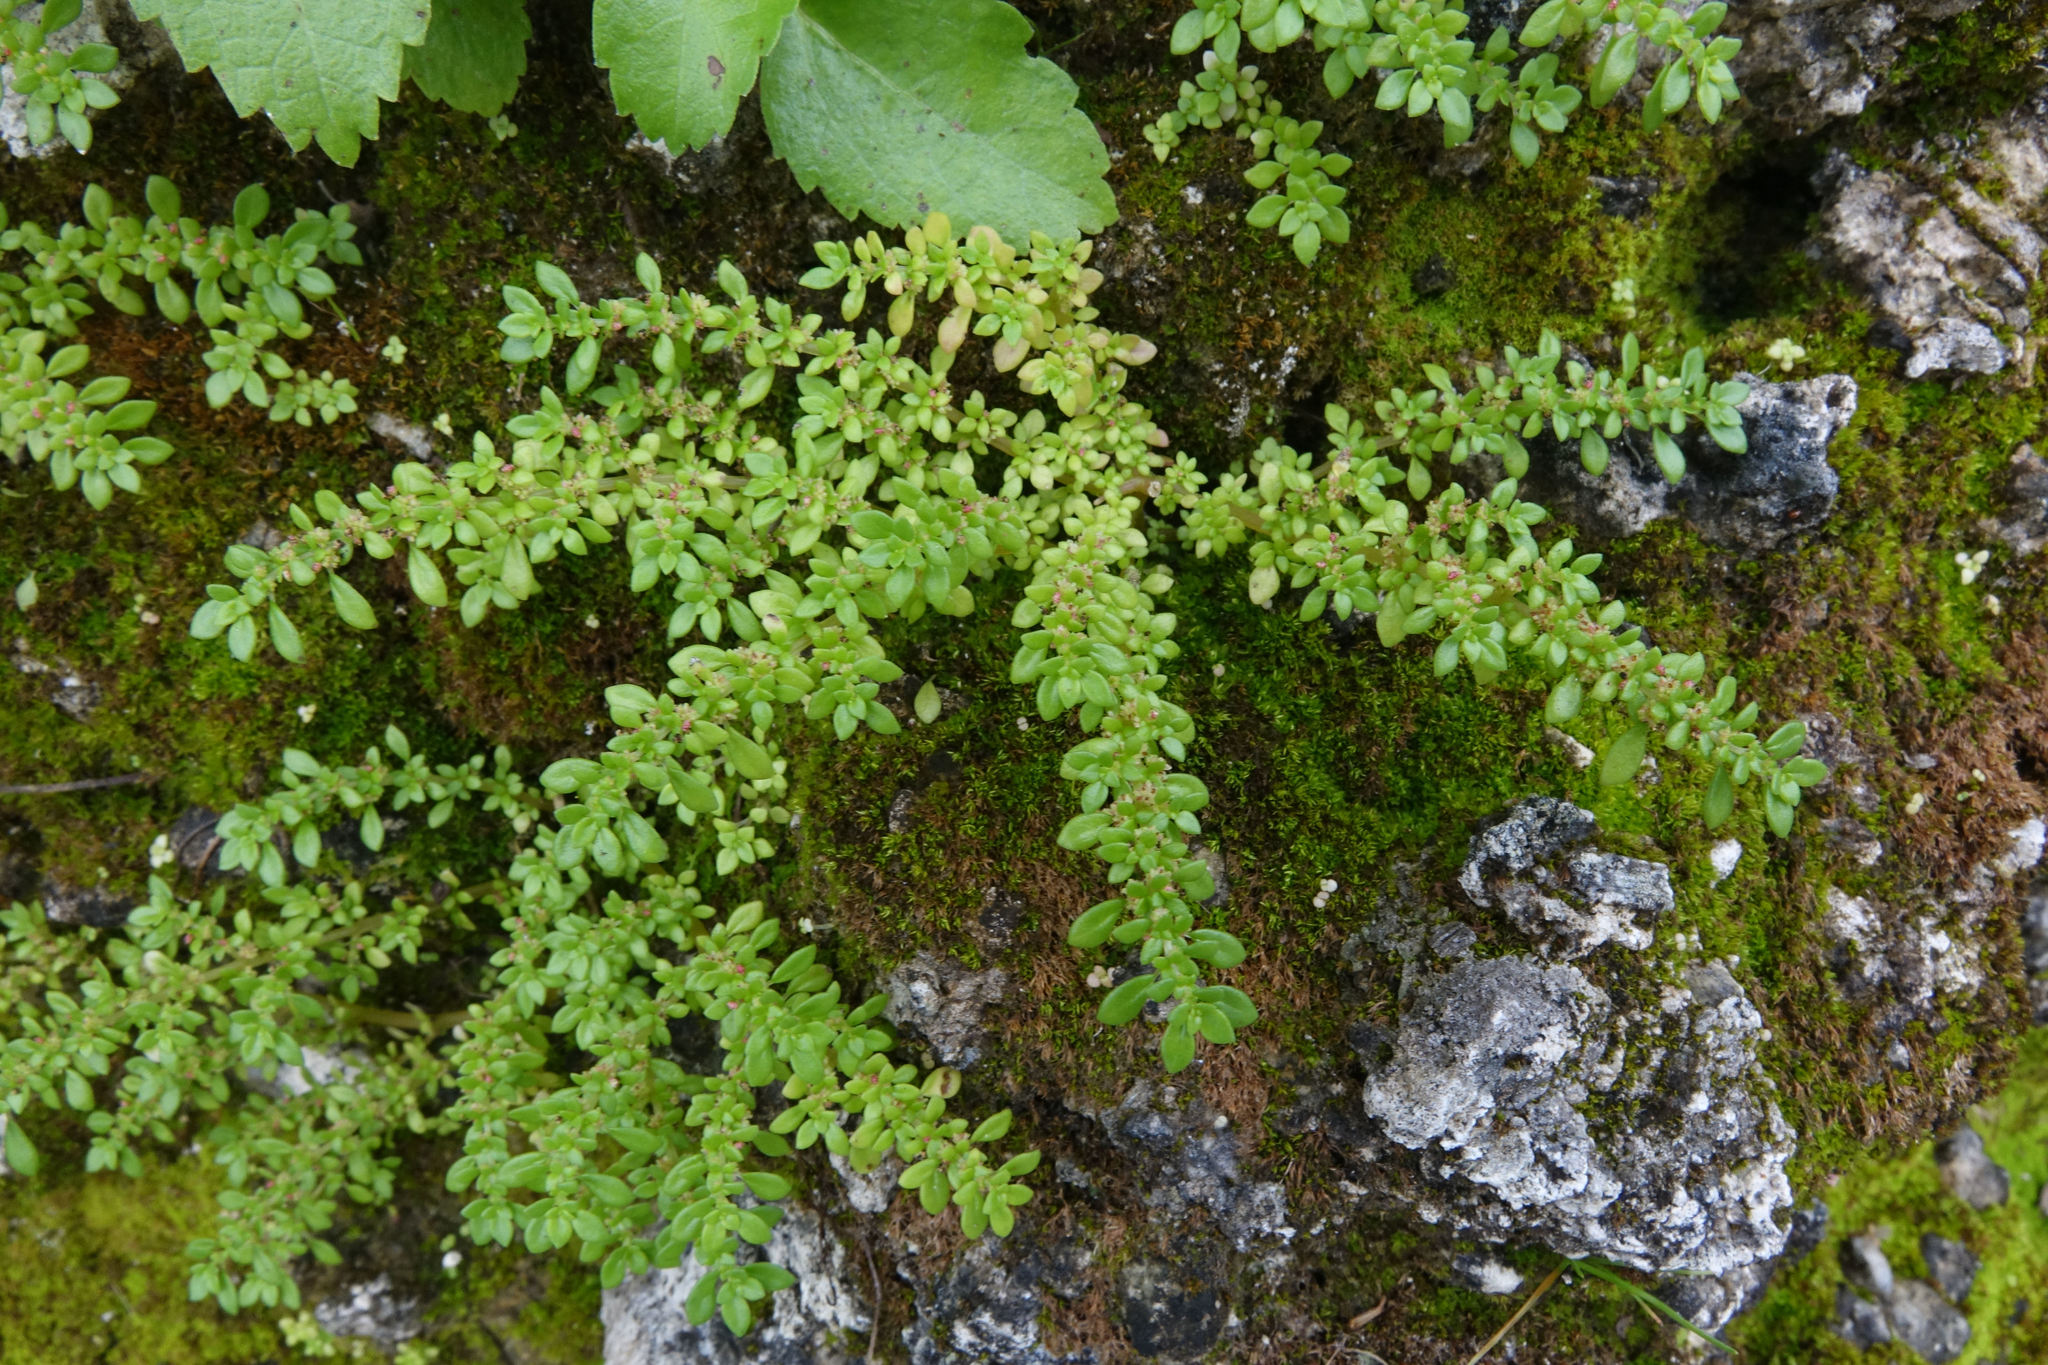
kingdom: Plantae
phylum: Tracheophyta
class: Magnoliopsida
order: Rosales
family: Urticaceae
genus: Pilea
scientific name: Pilea microphylla
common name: Artillery-plant
